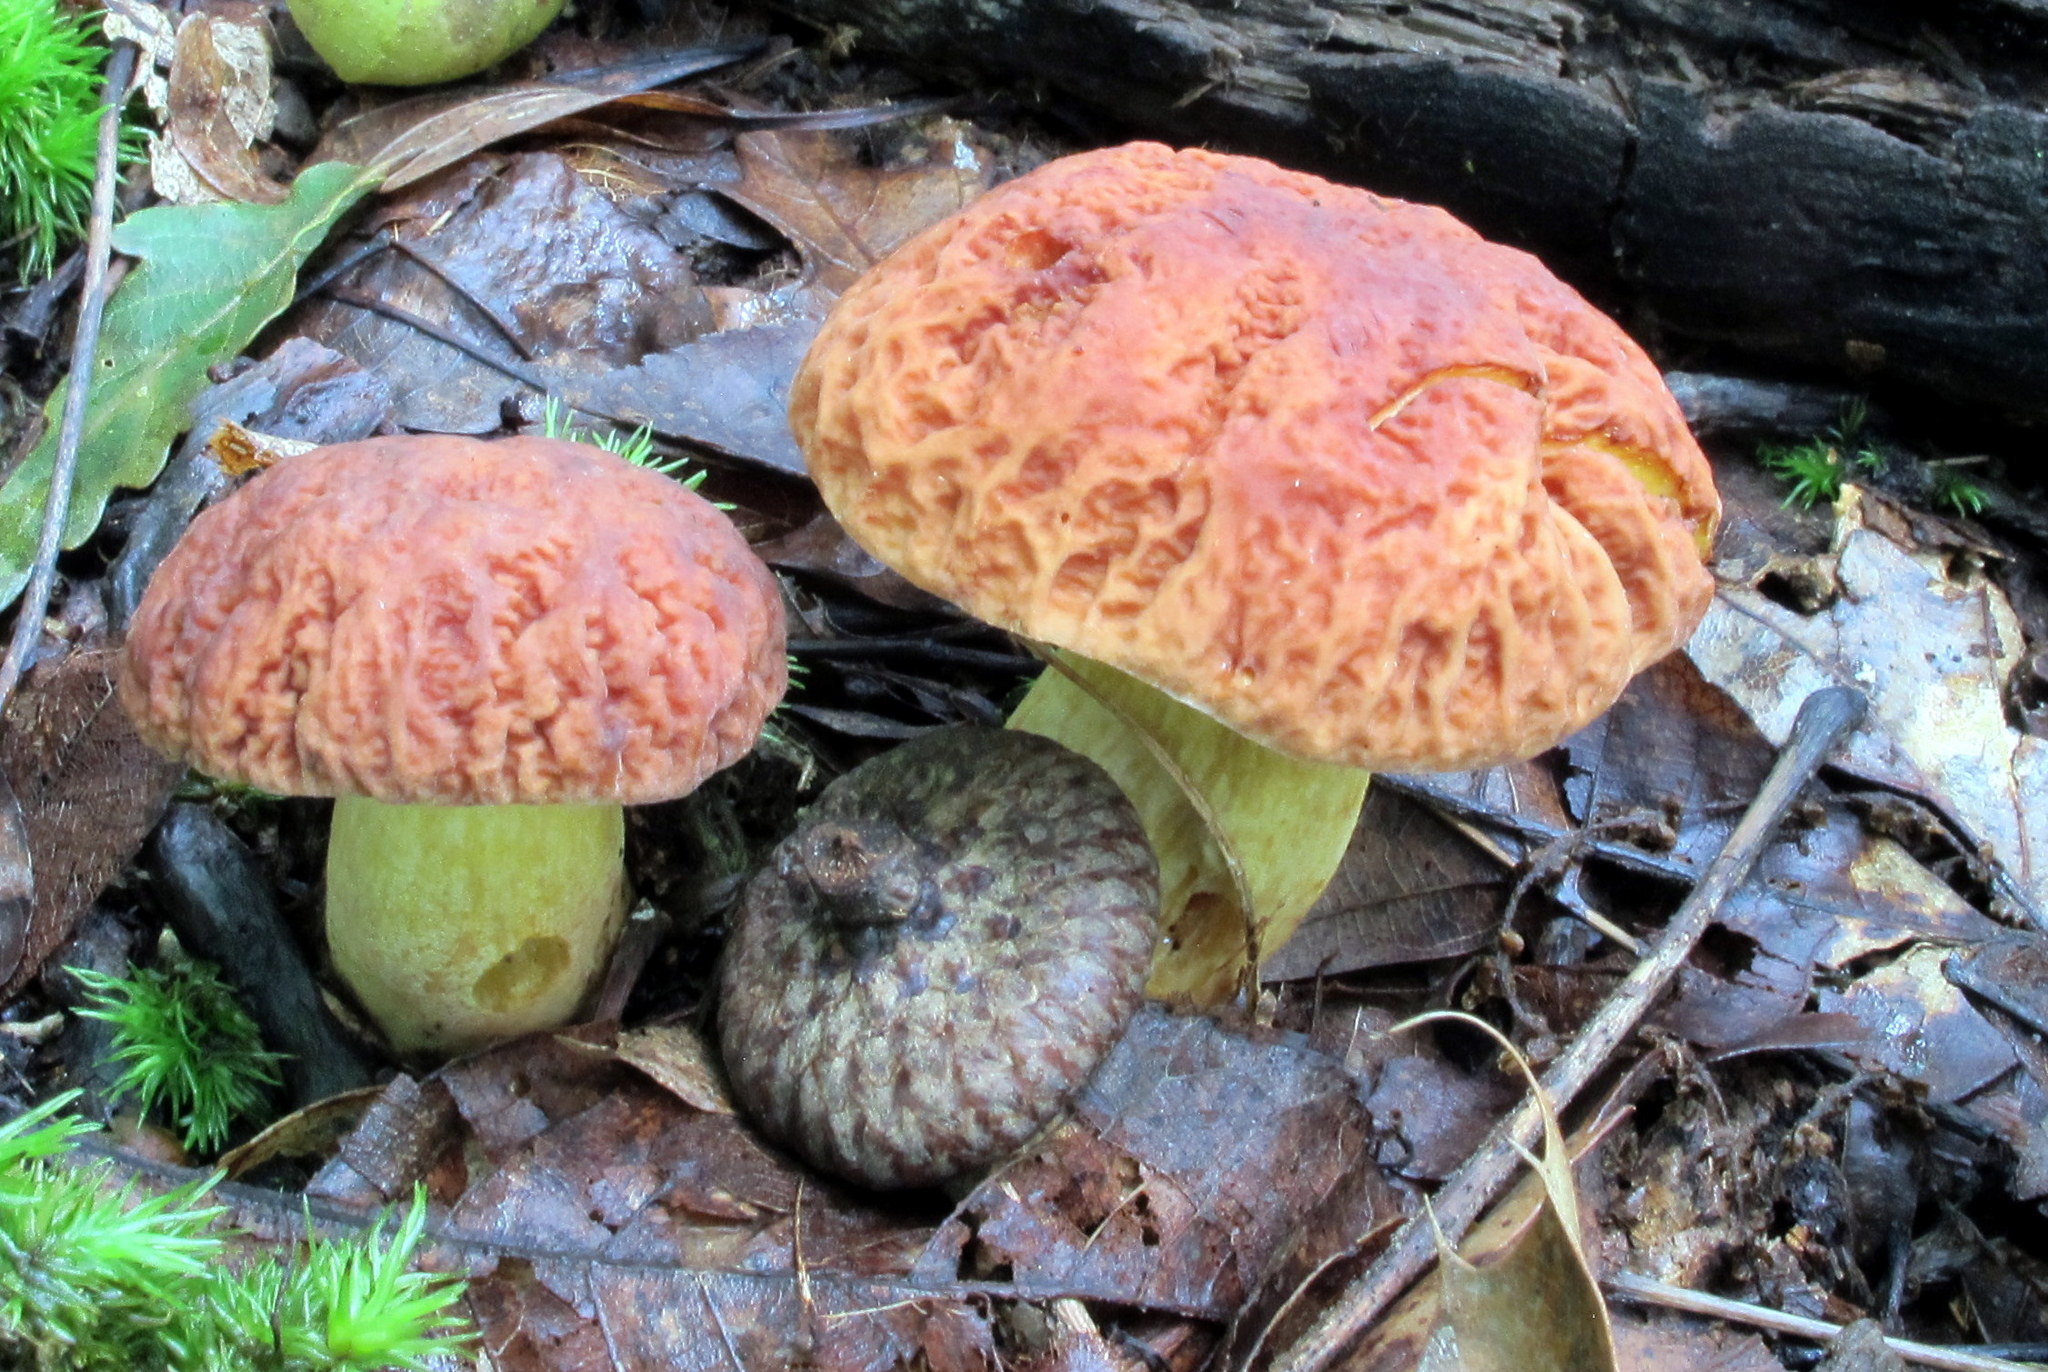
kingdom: Fungi
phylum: Basidiomycota
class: Agaricomycetes
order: Boletales
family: Boletaceae
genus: Hemileccinum
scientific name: Hemileccinum hortonii
